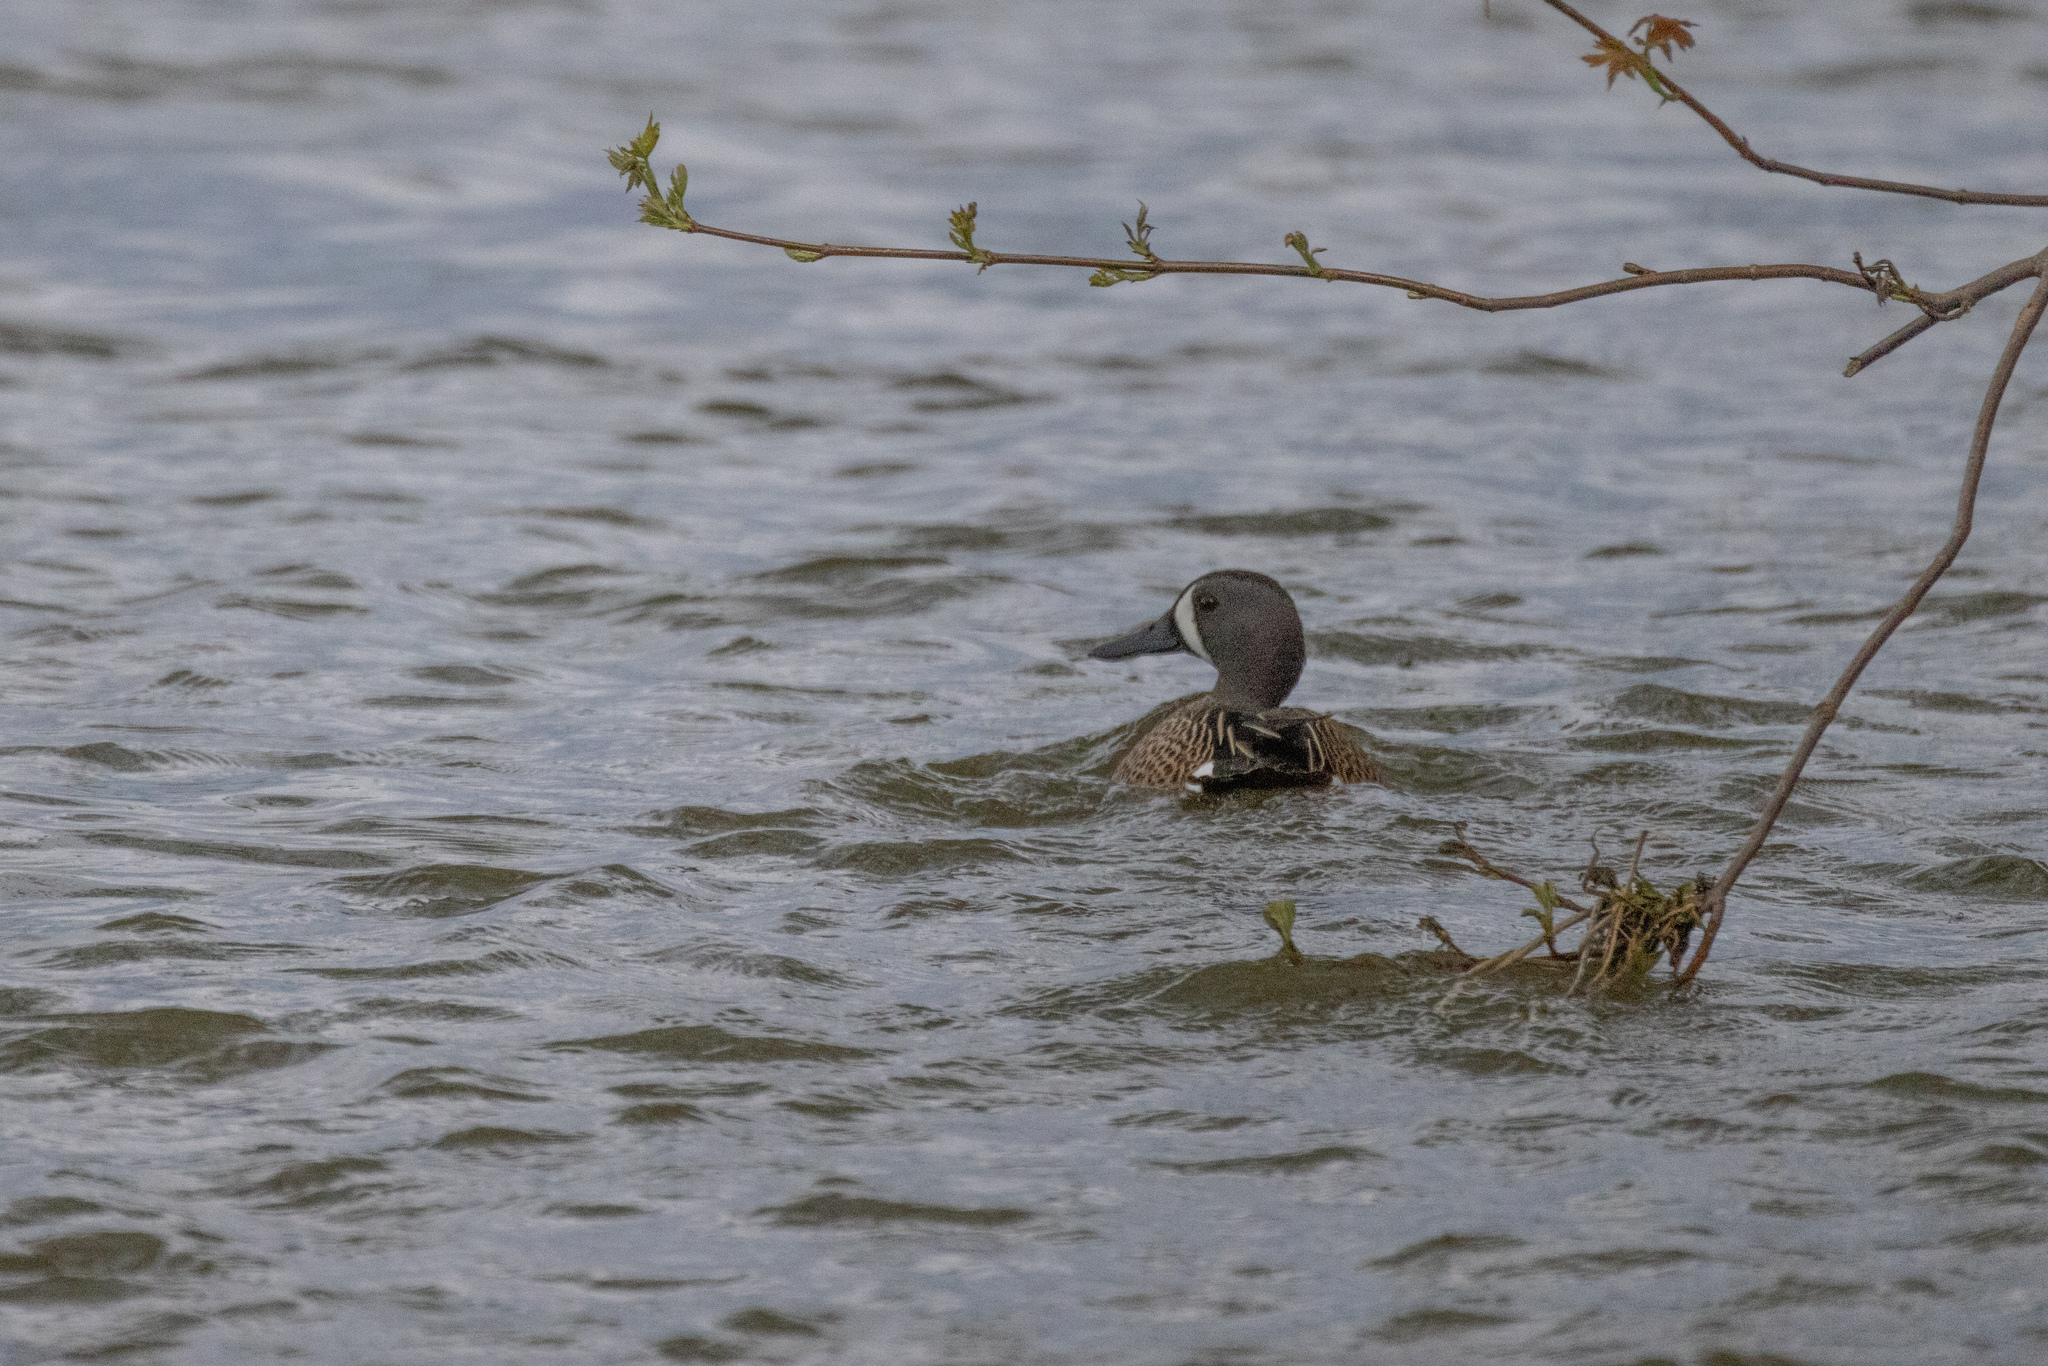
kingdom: Animalia
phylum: Chordata
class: Aves
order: Anseriformes
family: Anatidae
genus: Spatula
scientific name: Spatula discors
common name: Blue-winged teal
